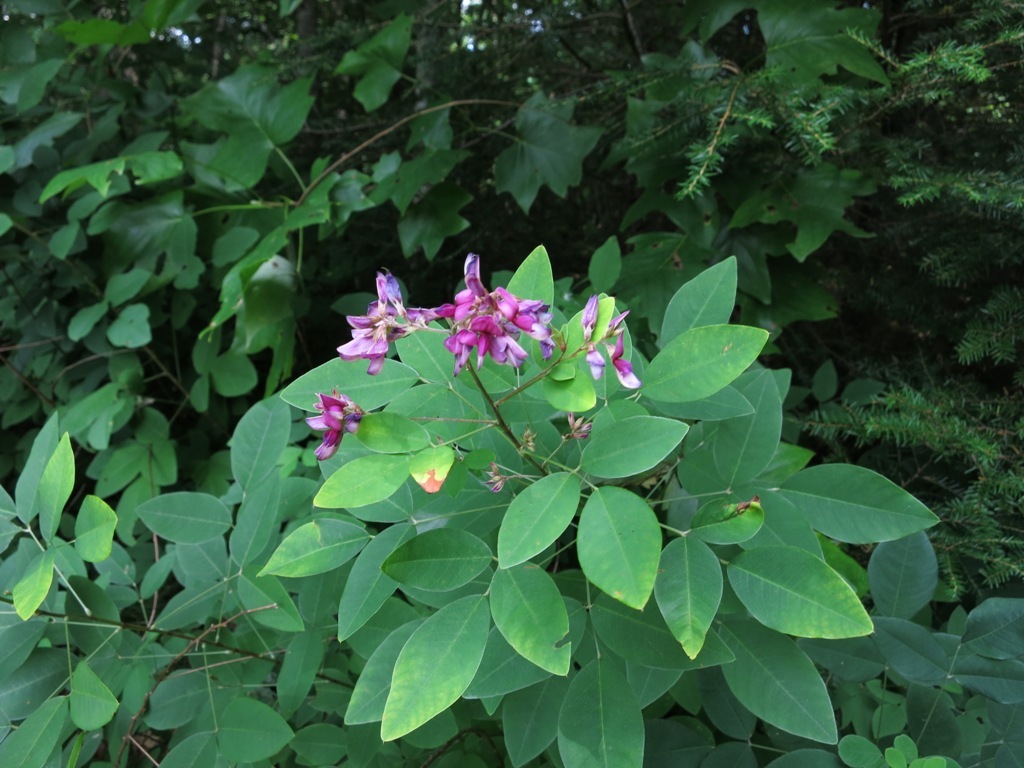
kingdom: Plantae
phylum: Tracheophyta
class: Magnoliopsida
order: Fabales
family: Fabaceae
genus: Lespedeza
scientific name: Lespedeza bicolor
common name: Shrub lespedeza
